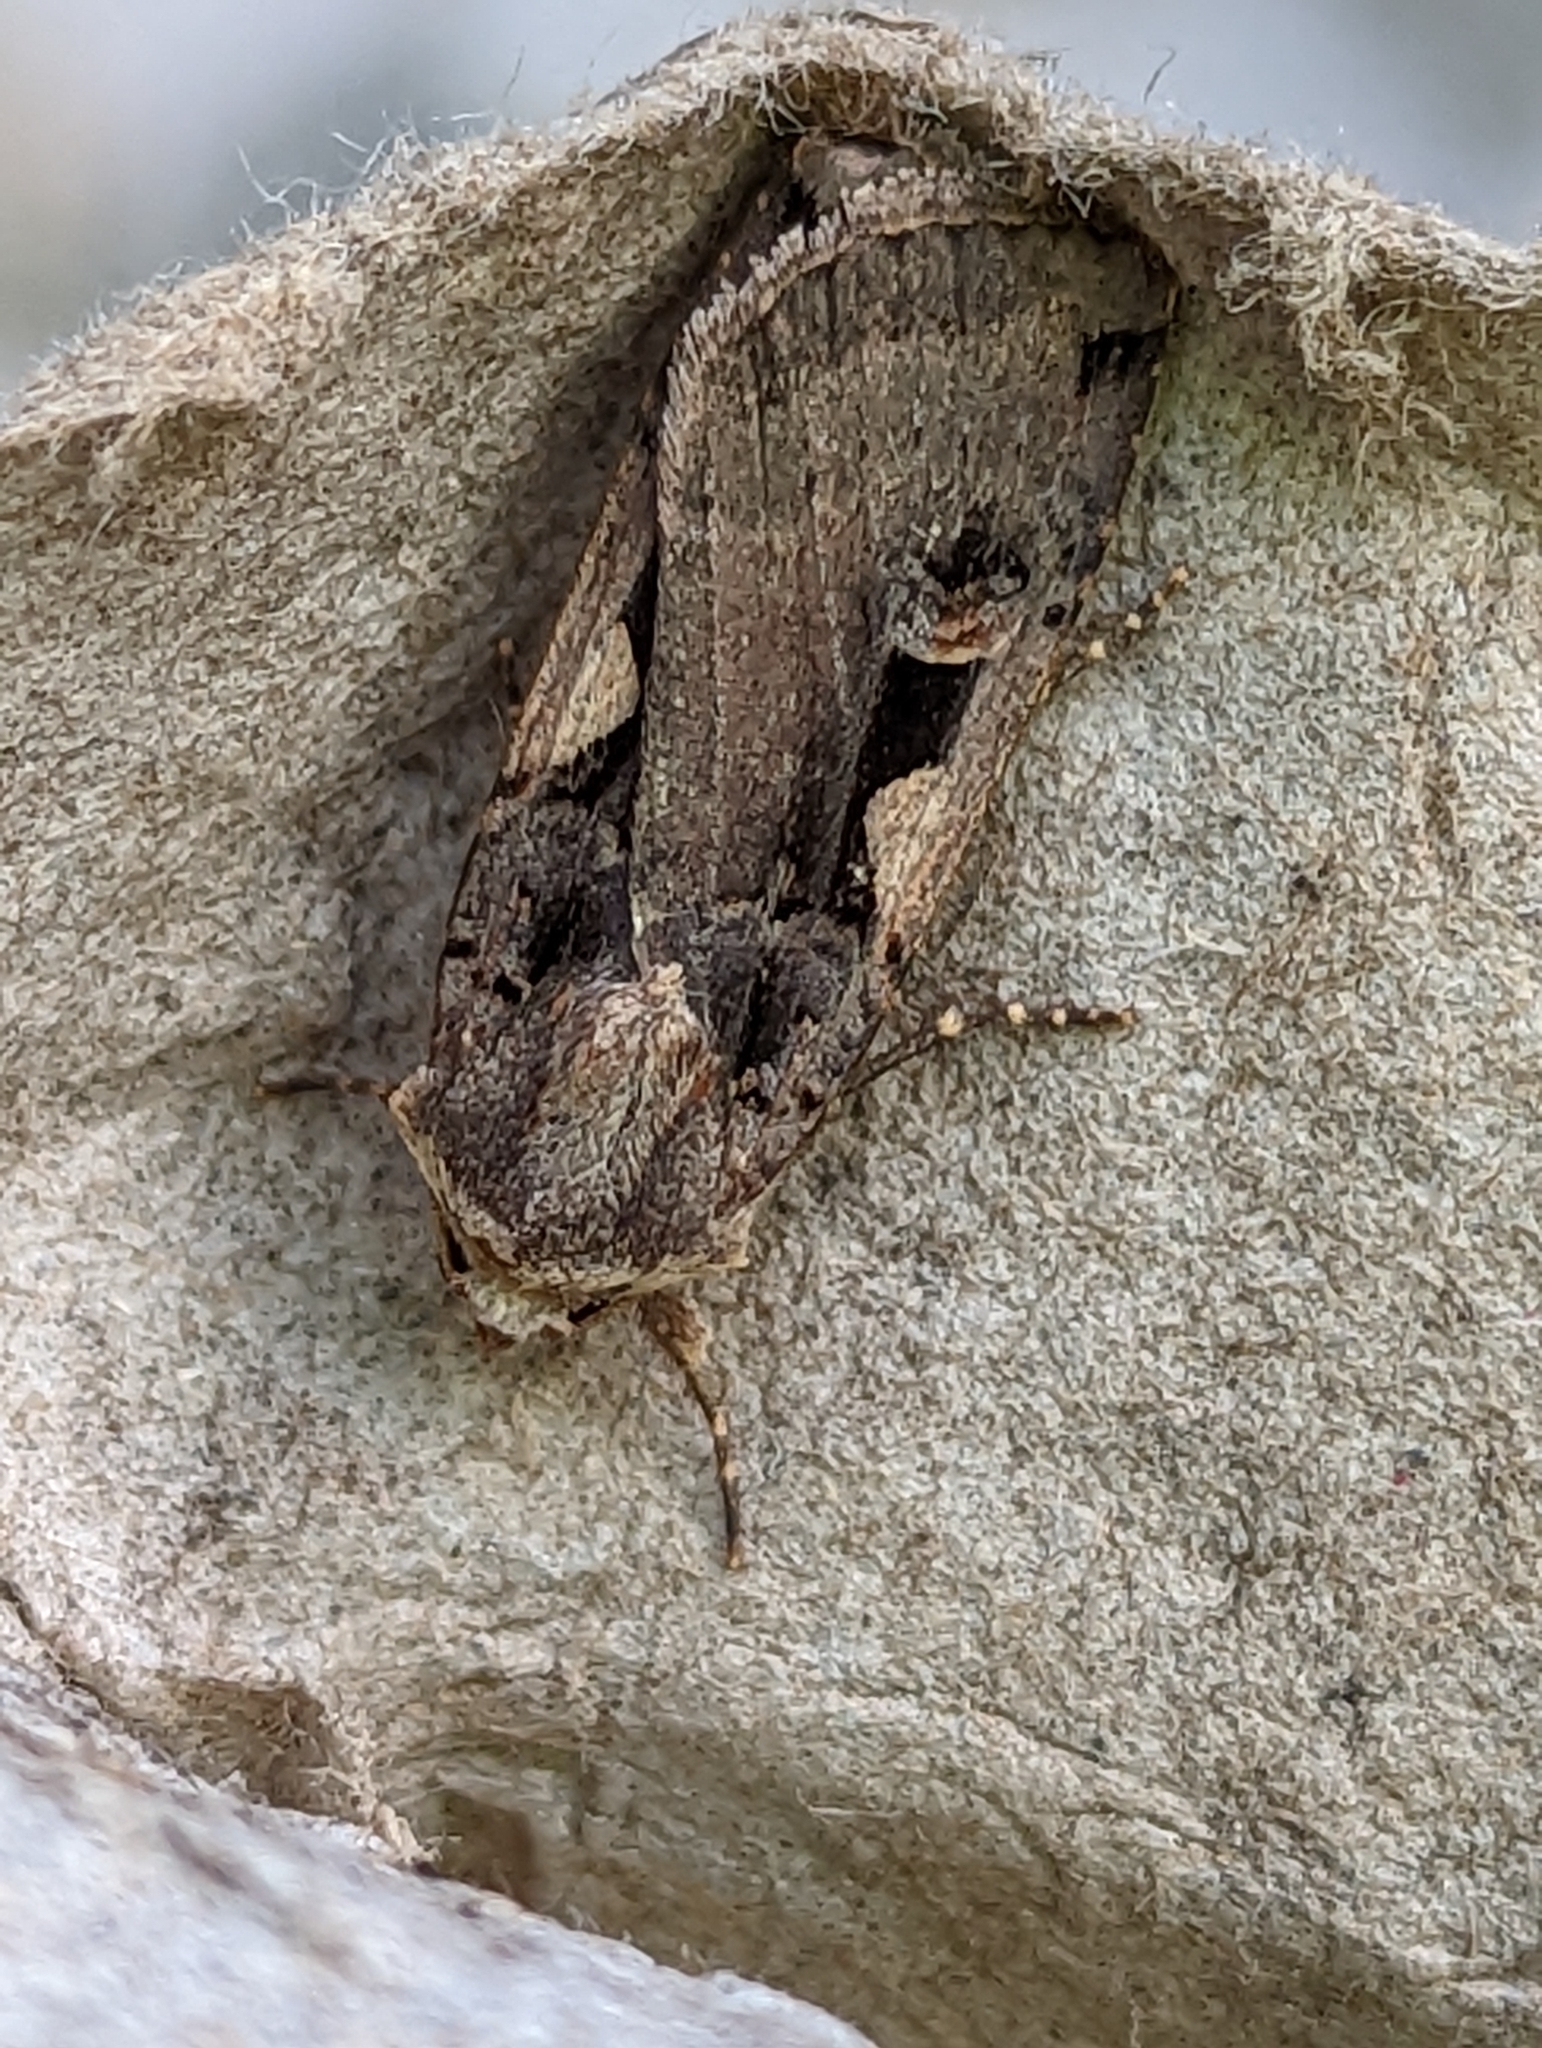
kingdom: Animalia
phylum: Arthropoda
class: Insecta
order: Lepidoptera
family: Noctuidae
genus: Xestia
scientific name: Xestia c-nigrum
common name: Setaceous hebrew character
